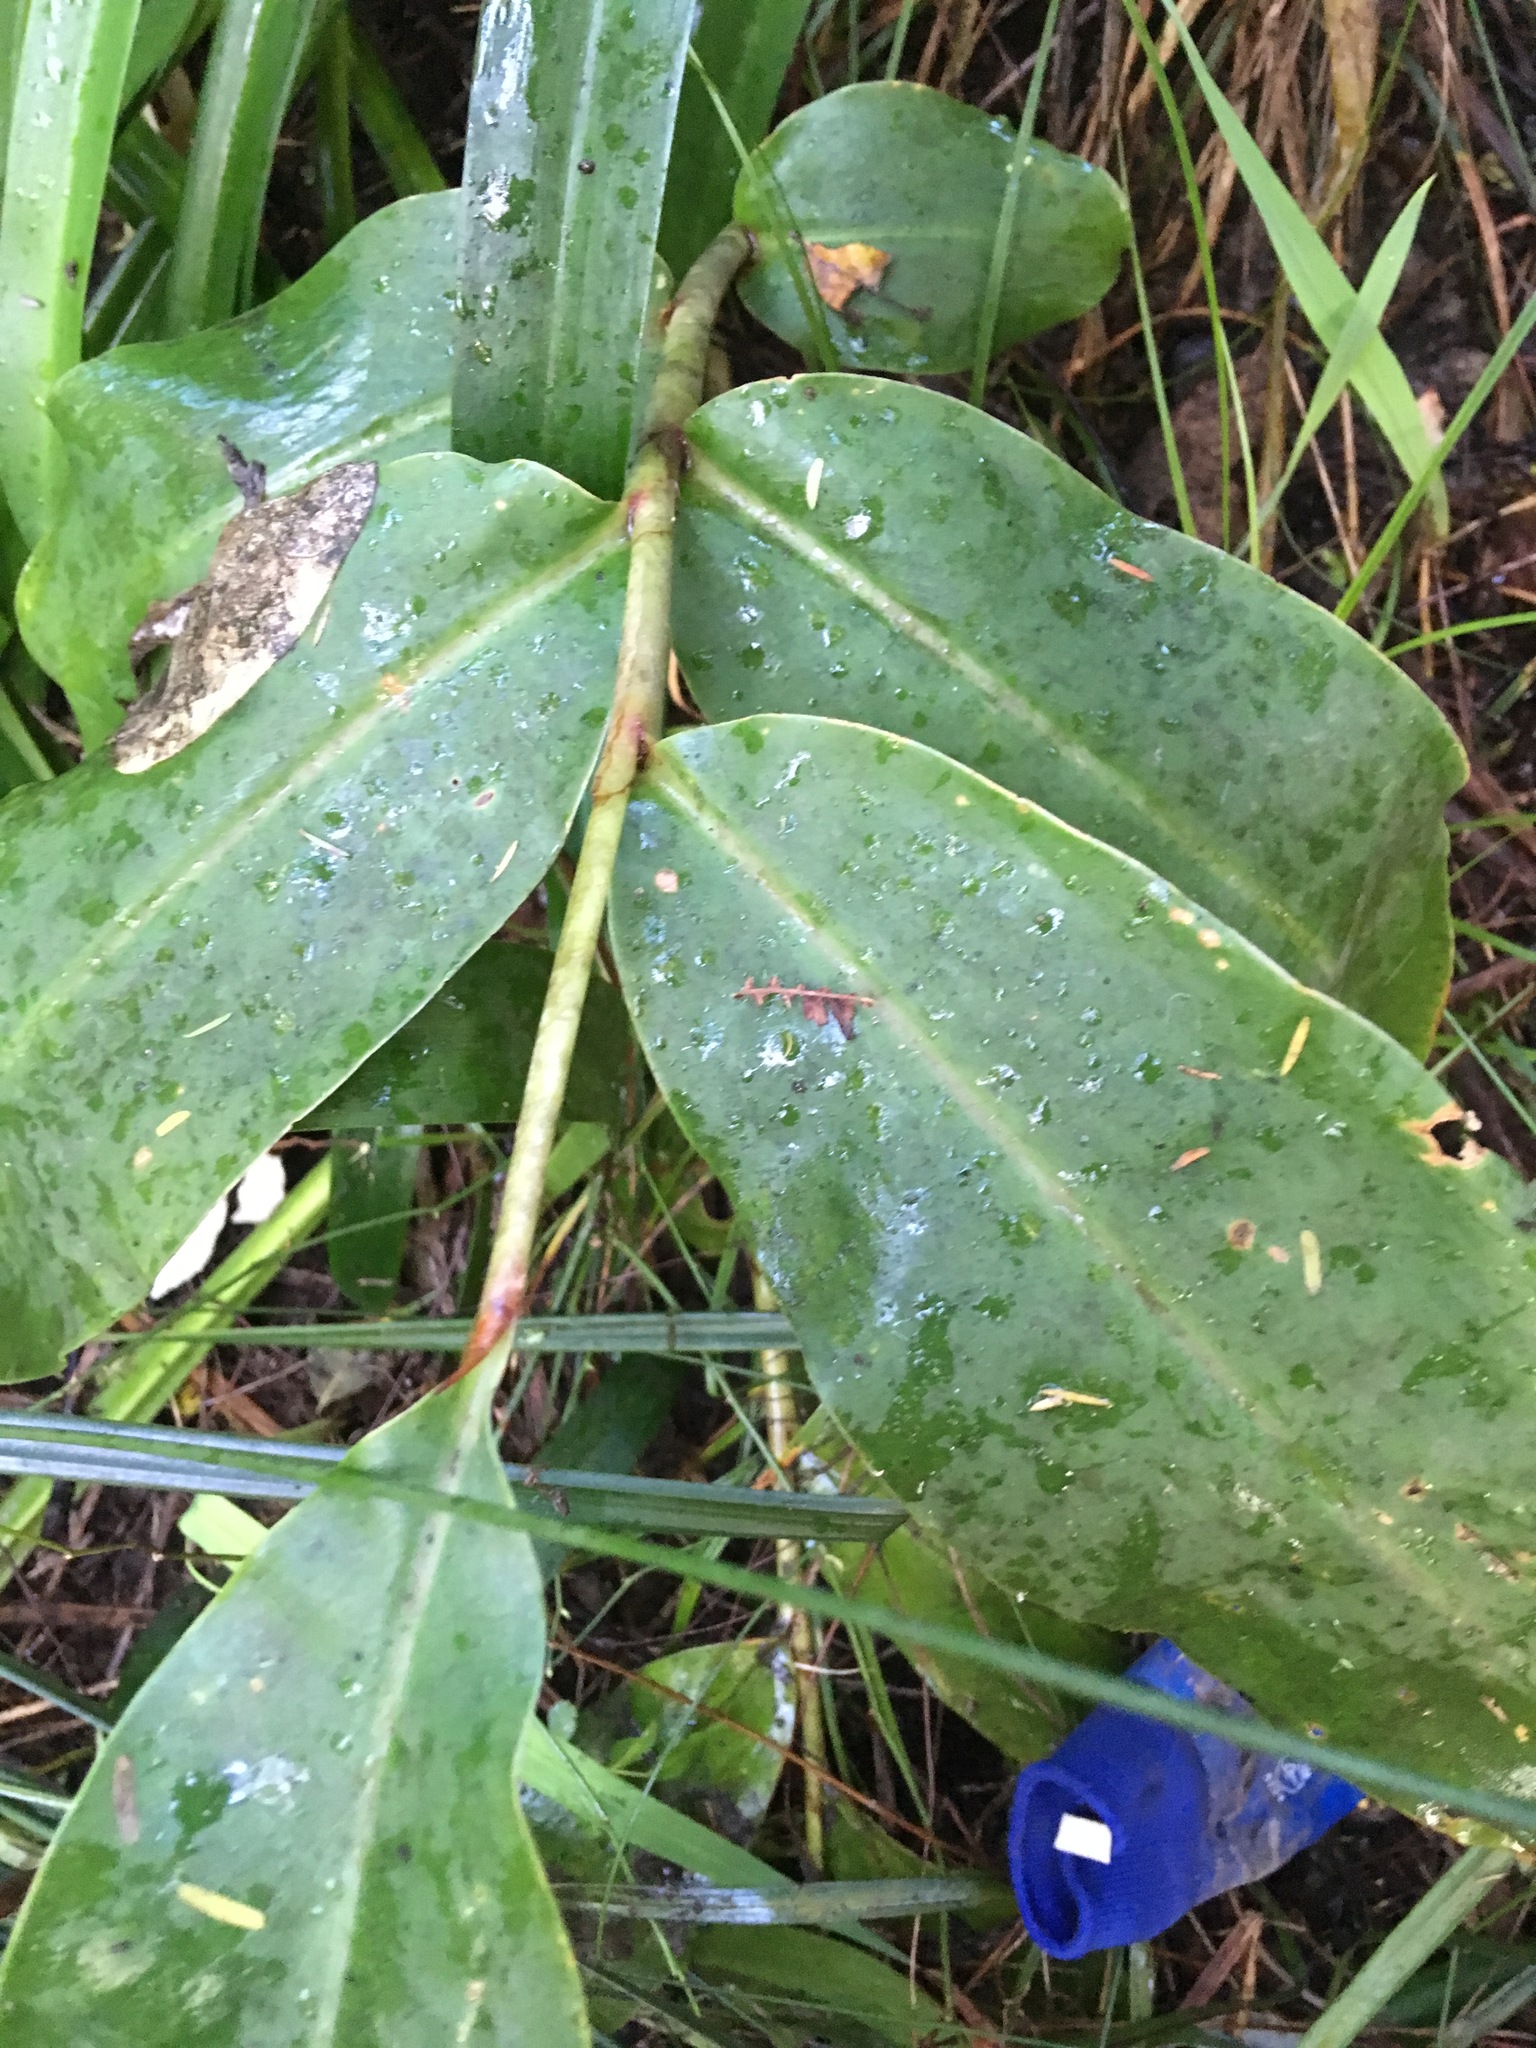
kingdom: Plantae
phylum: Tracheophyta
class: Liliopsida
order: Zingiberales
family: Zingiberaceae
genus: Hedychium
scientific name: Hedychium gardnerianum
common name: Himalayan ginger
